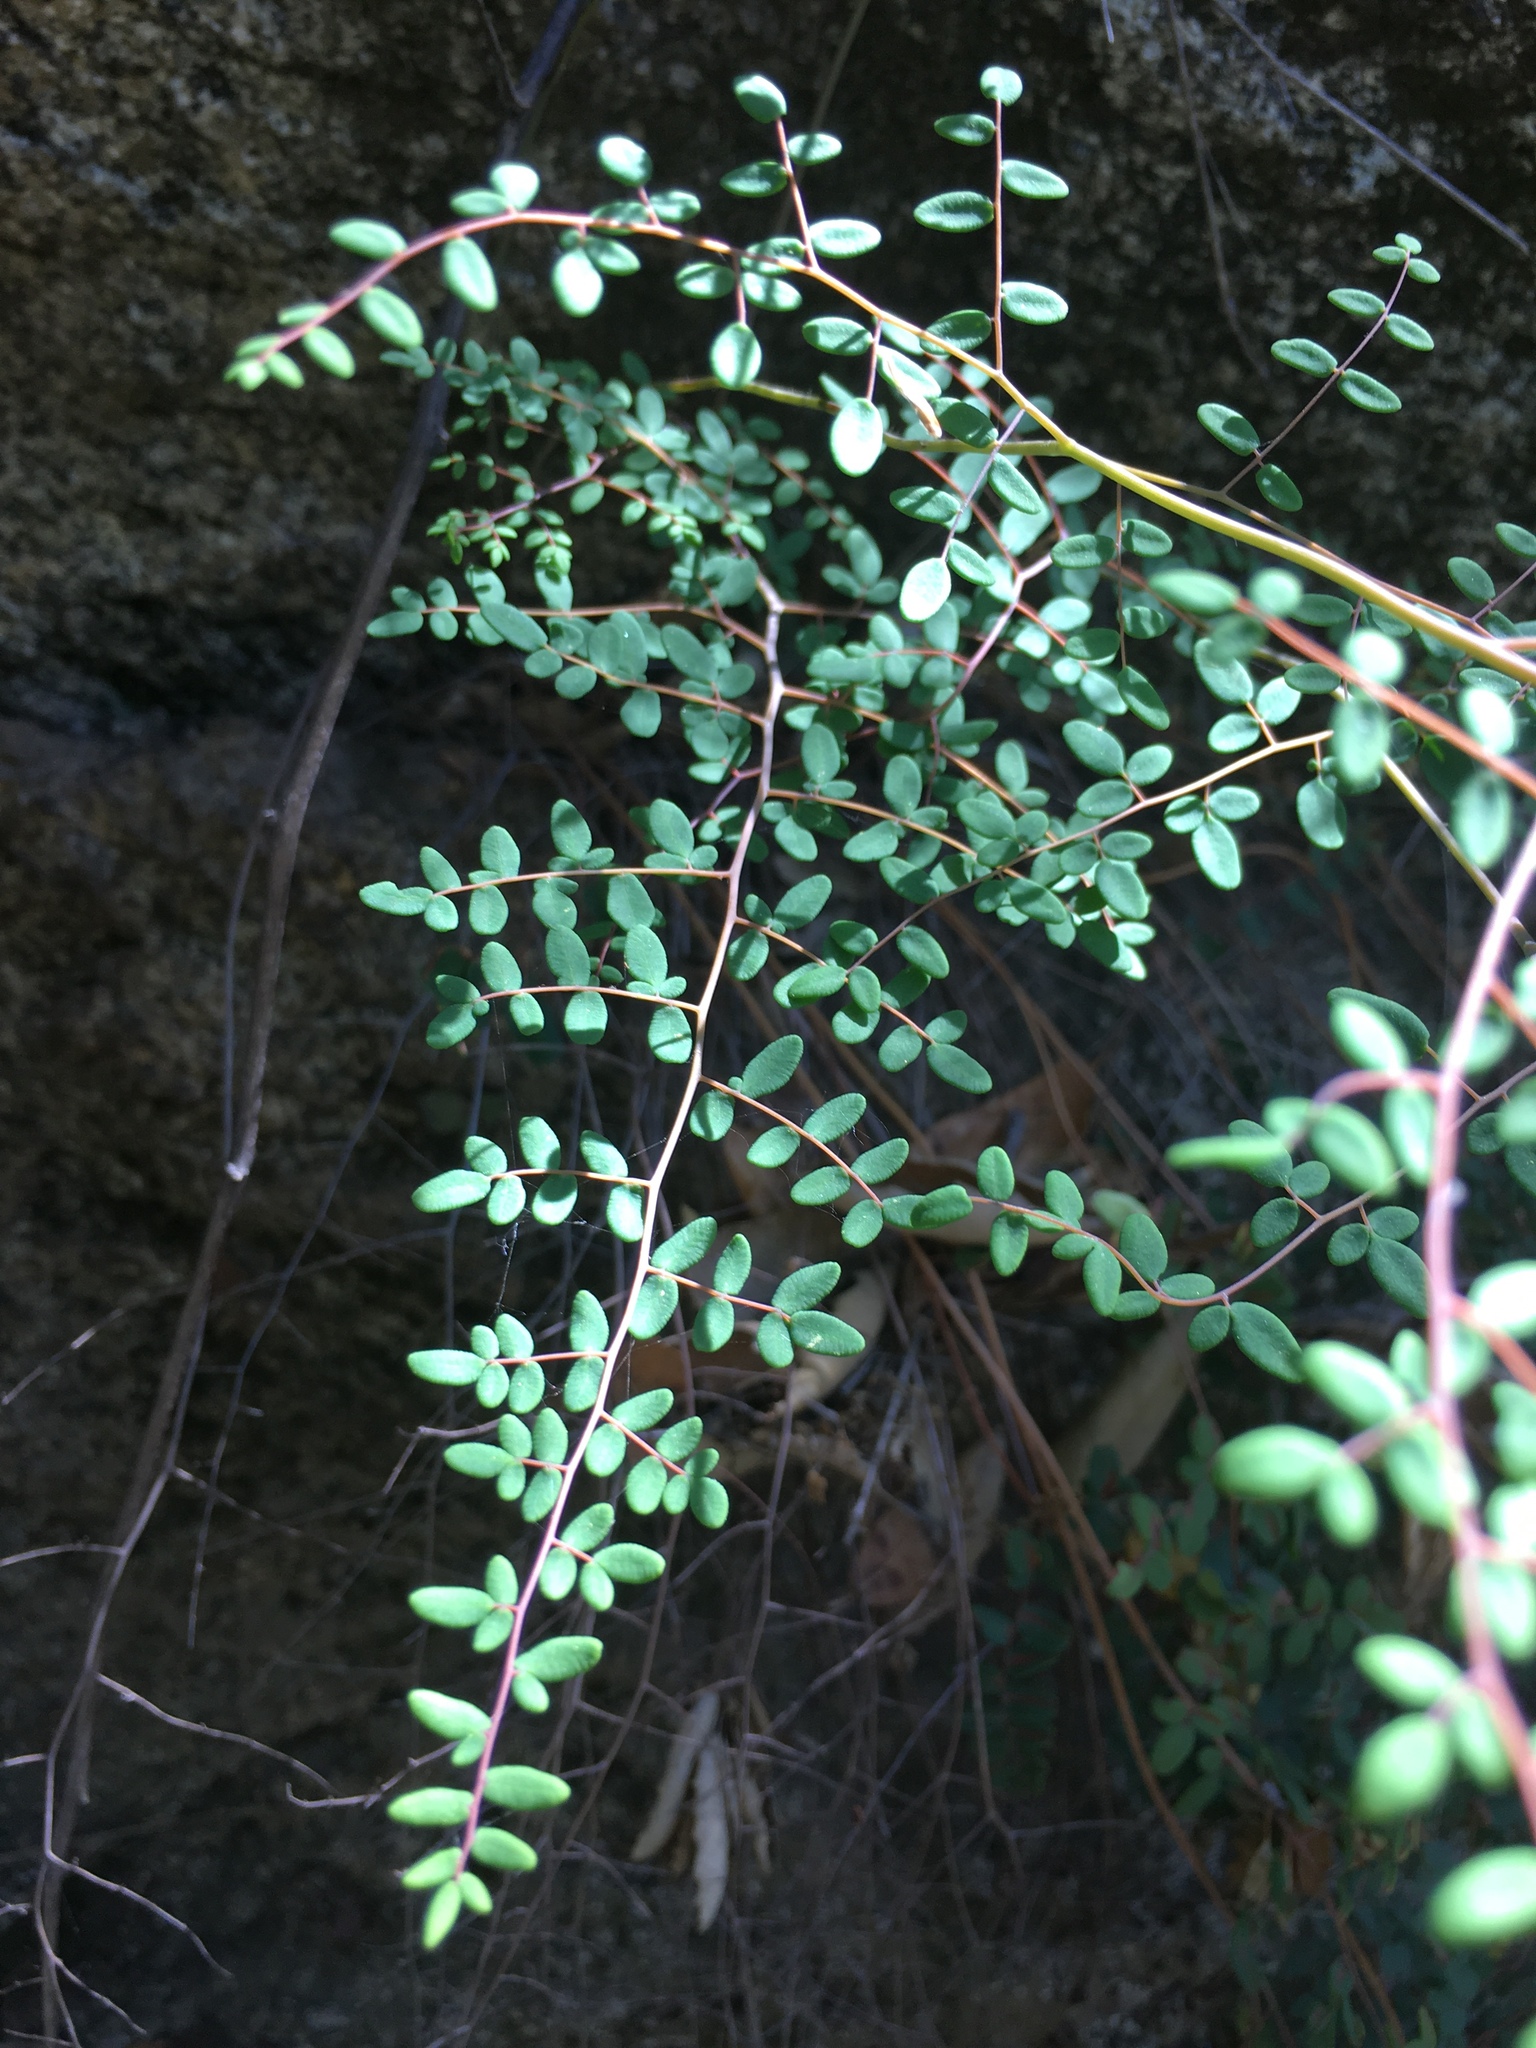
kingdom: Plantae
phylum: Tracheophyta
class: Polypodiopsida
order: Polypodiales
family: Pteridaceae
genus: Pellaea
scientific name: Pellaea andromedifolia
